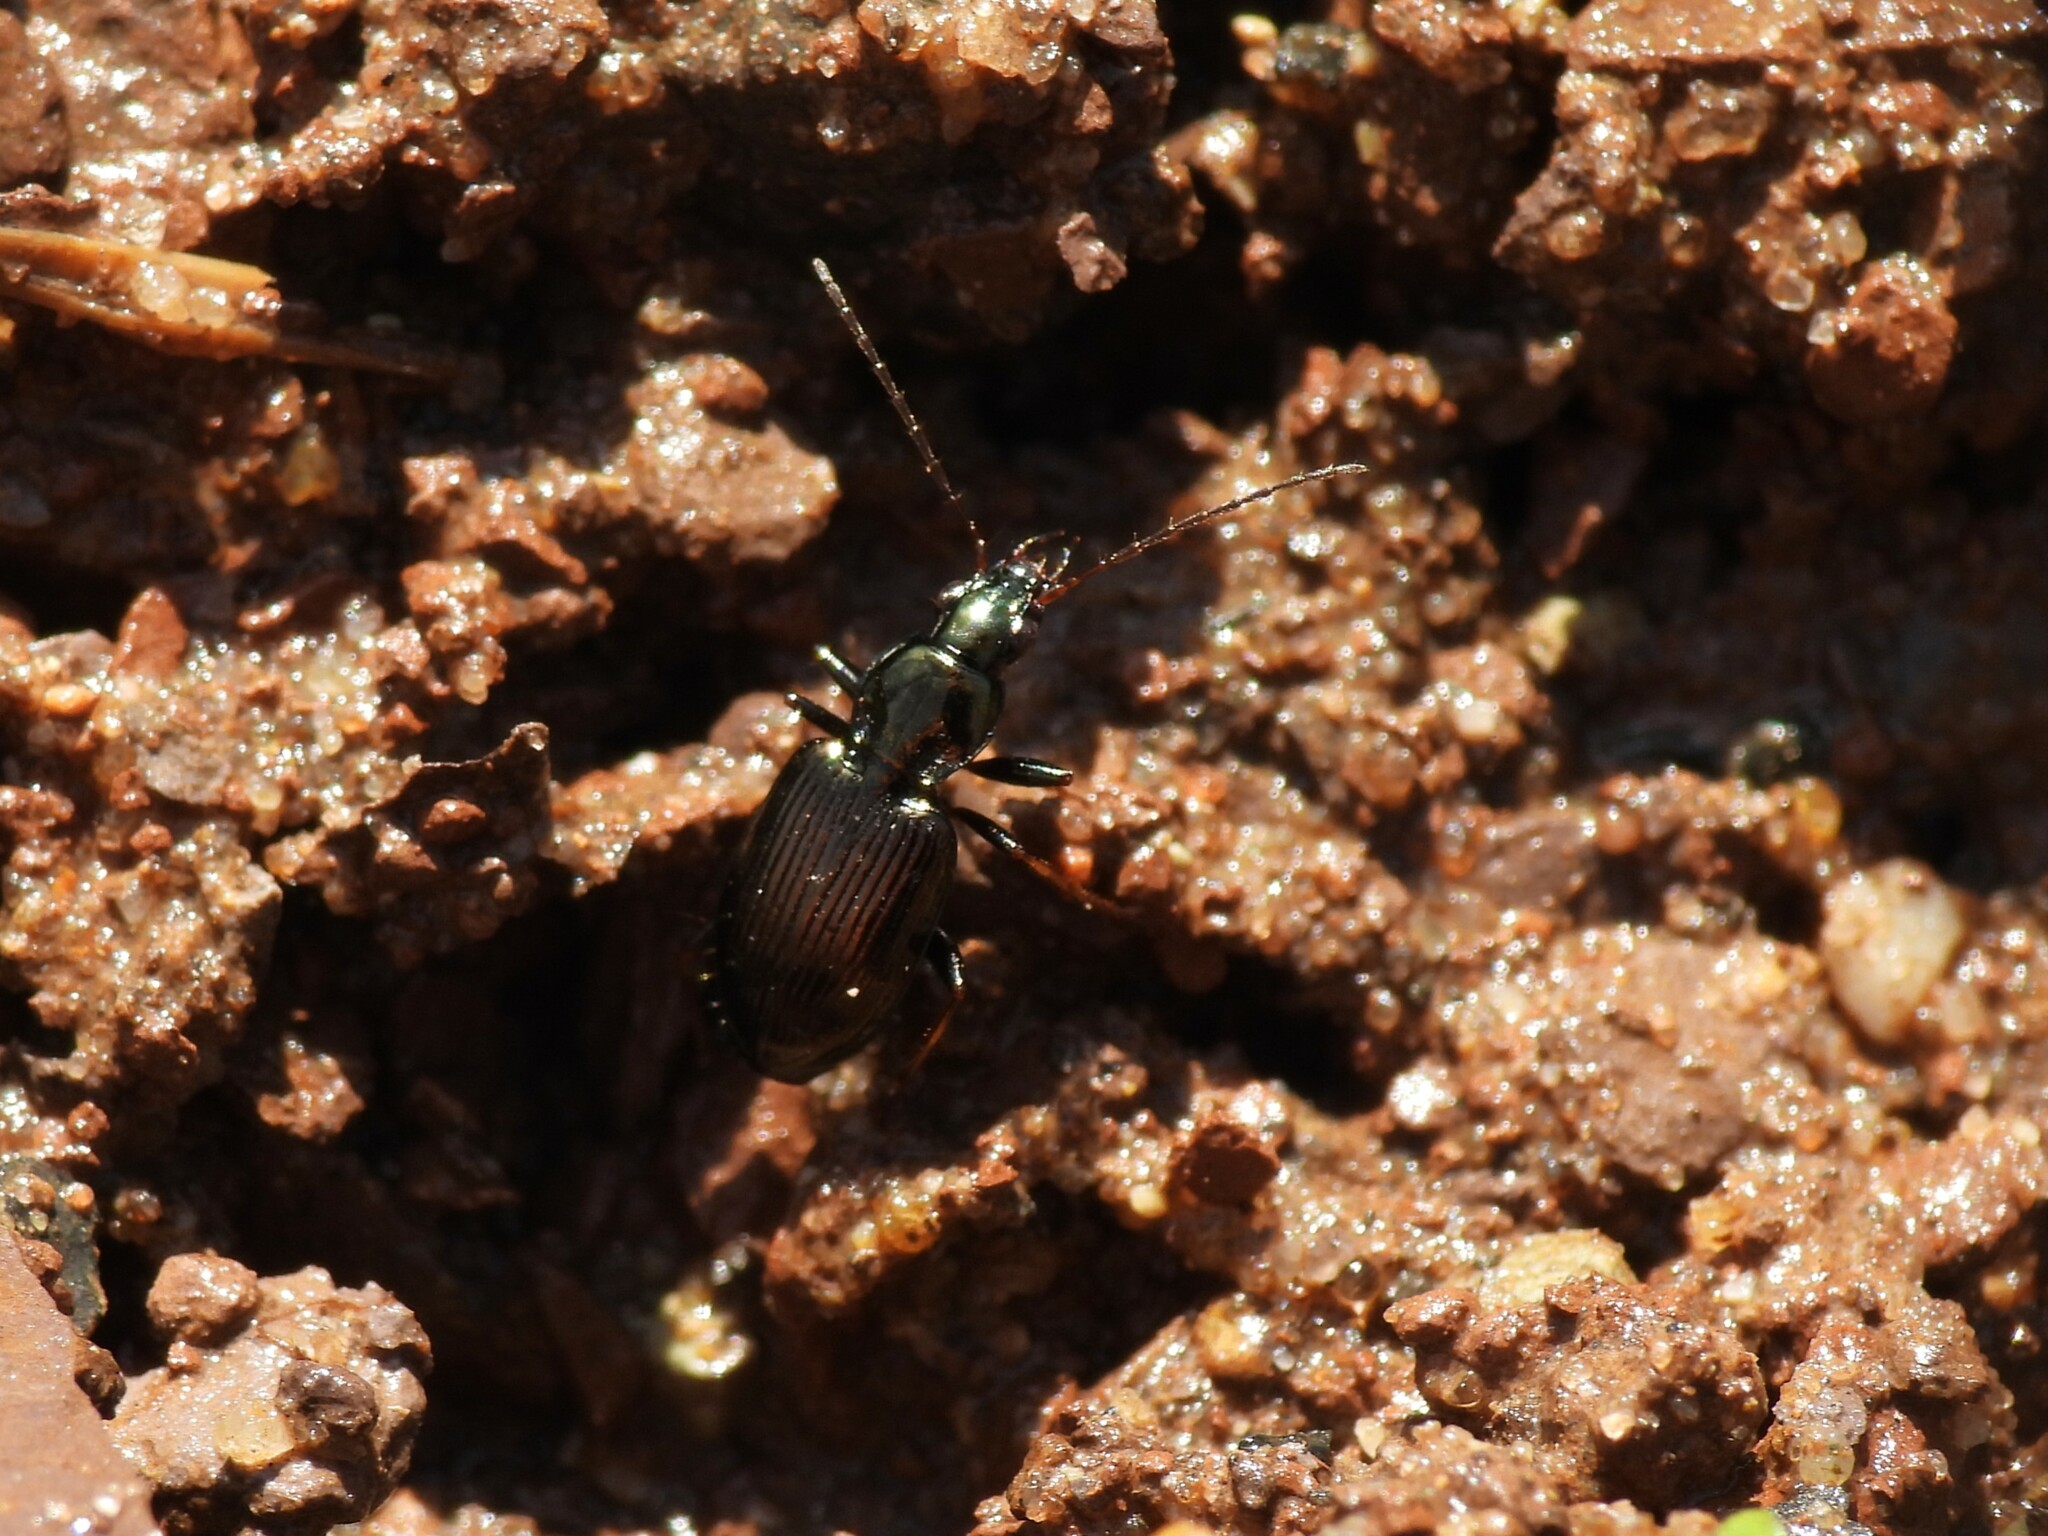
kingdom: Animalia
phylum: Arthropoda
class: Insecta
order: Coleoptera
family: Carabidae
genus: Agonum
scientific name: Agonum ferreum
